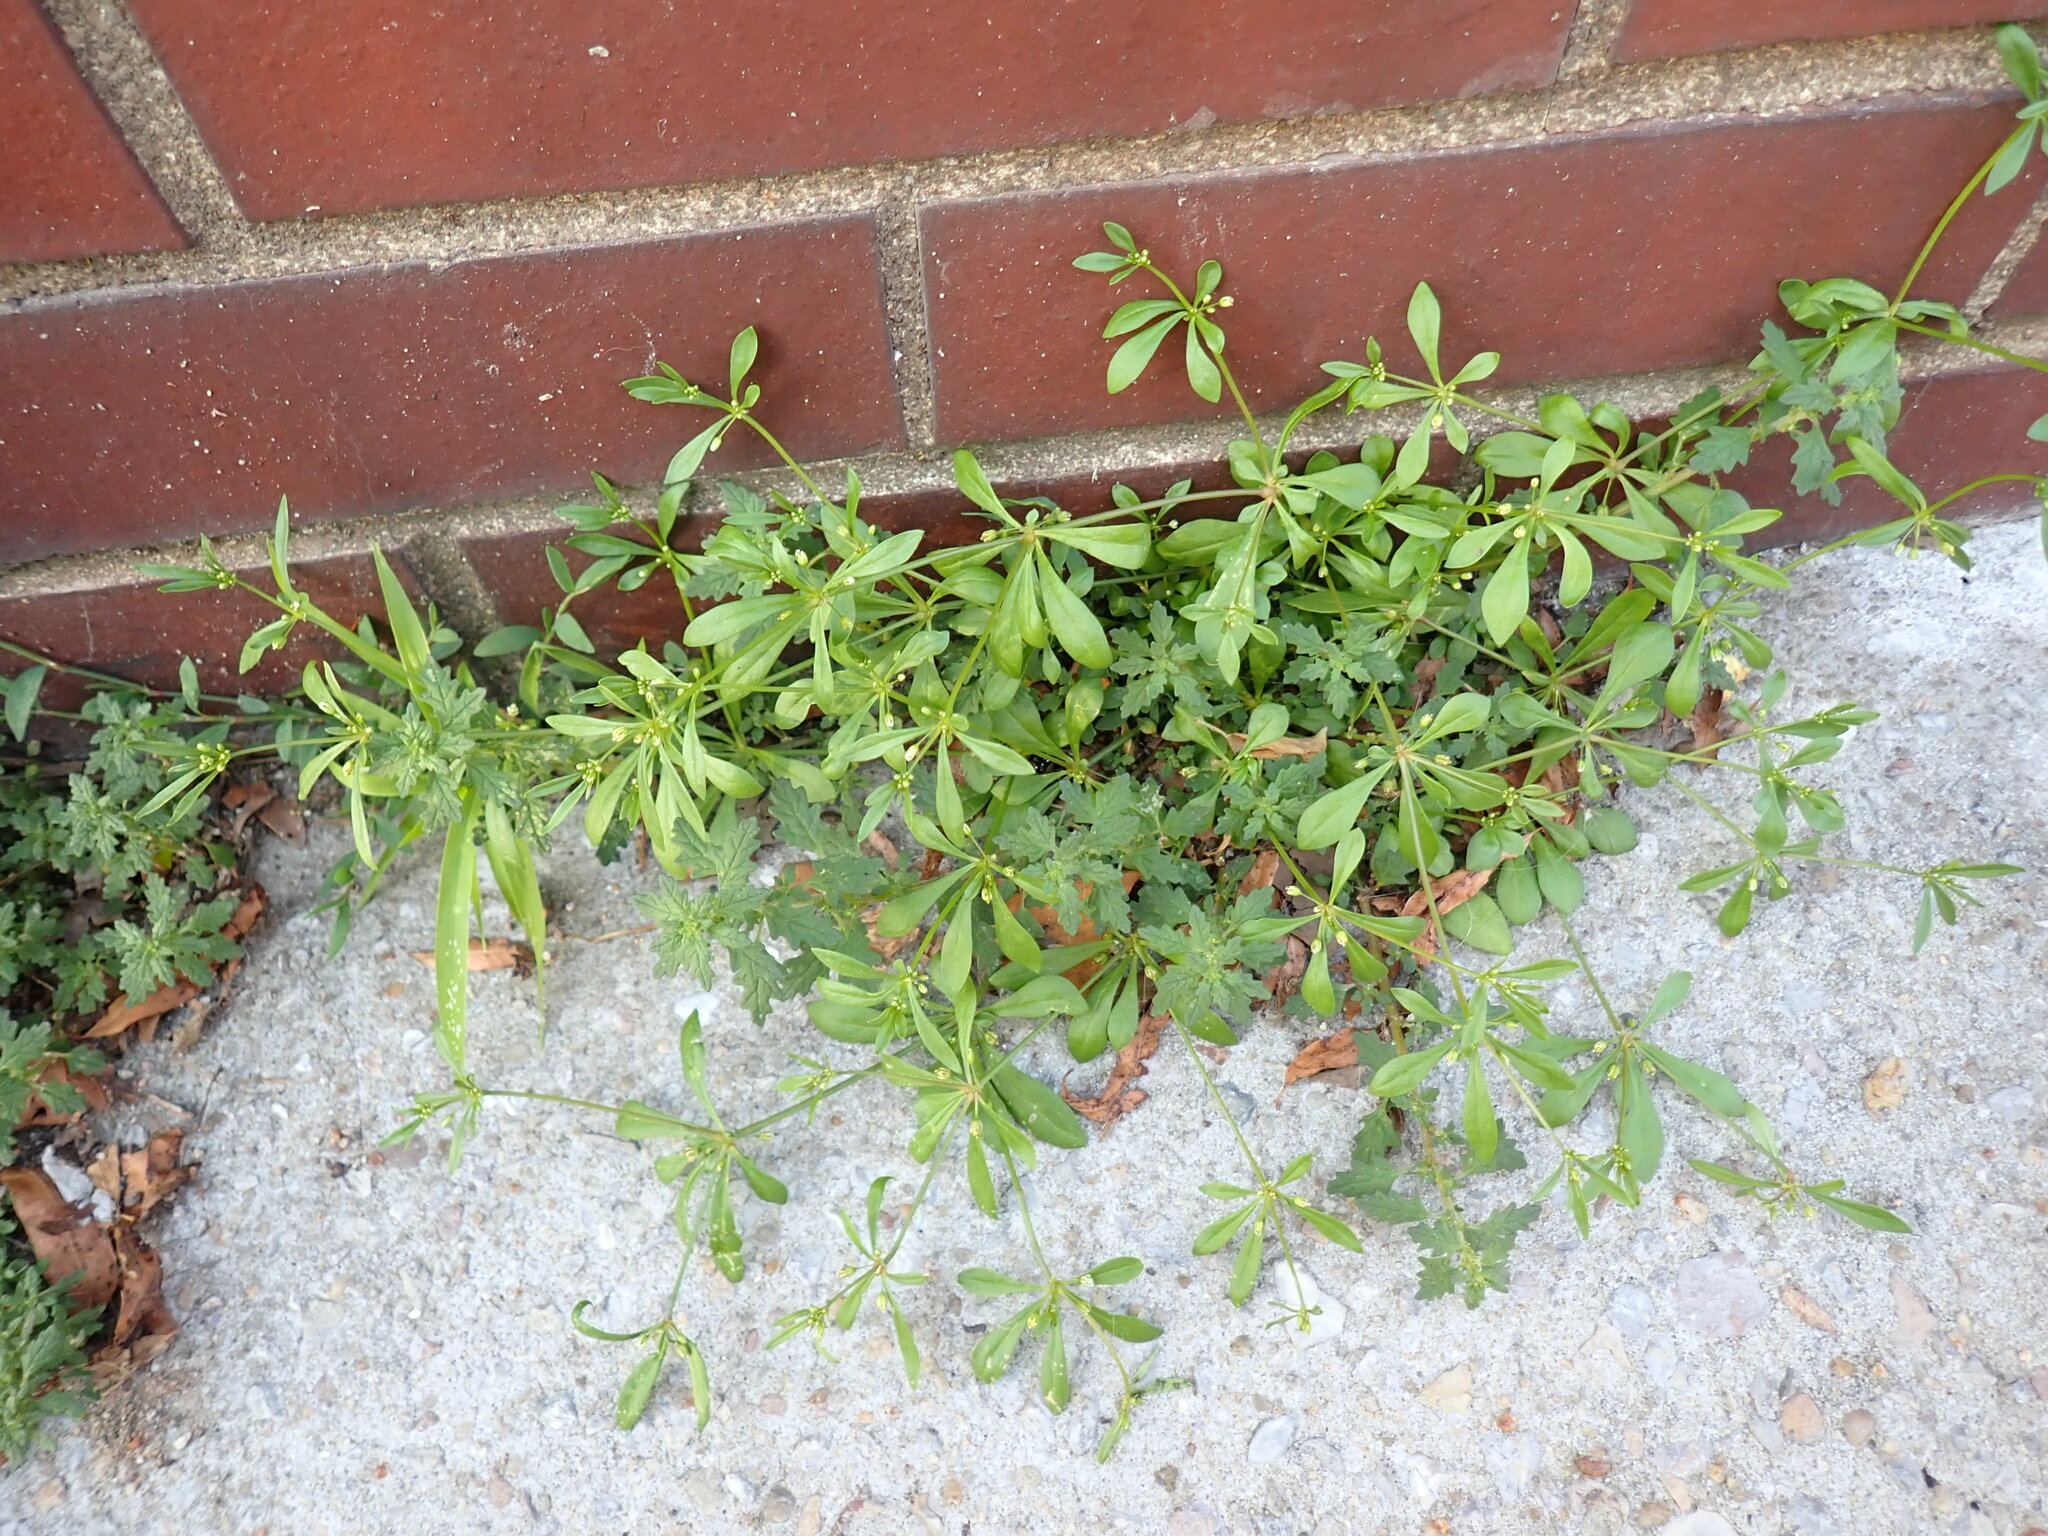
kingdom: Plantae
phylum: Tracheophyta
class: Magnoliopsida
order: Caryophyllales
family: Molluginaceae
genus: Mollugo
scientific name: Mollugo verticillata
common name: Green carpetweed
